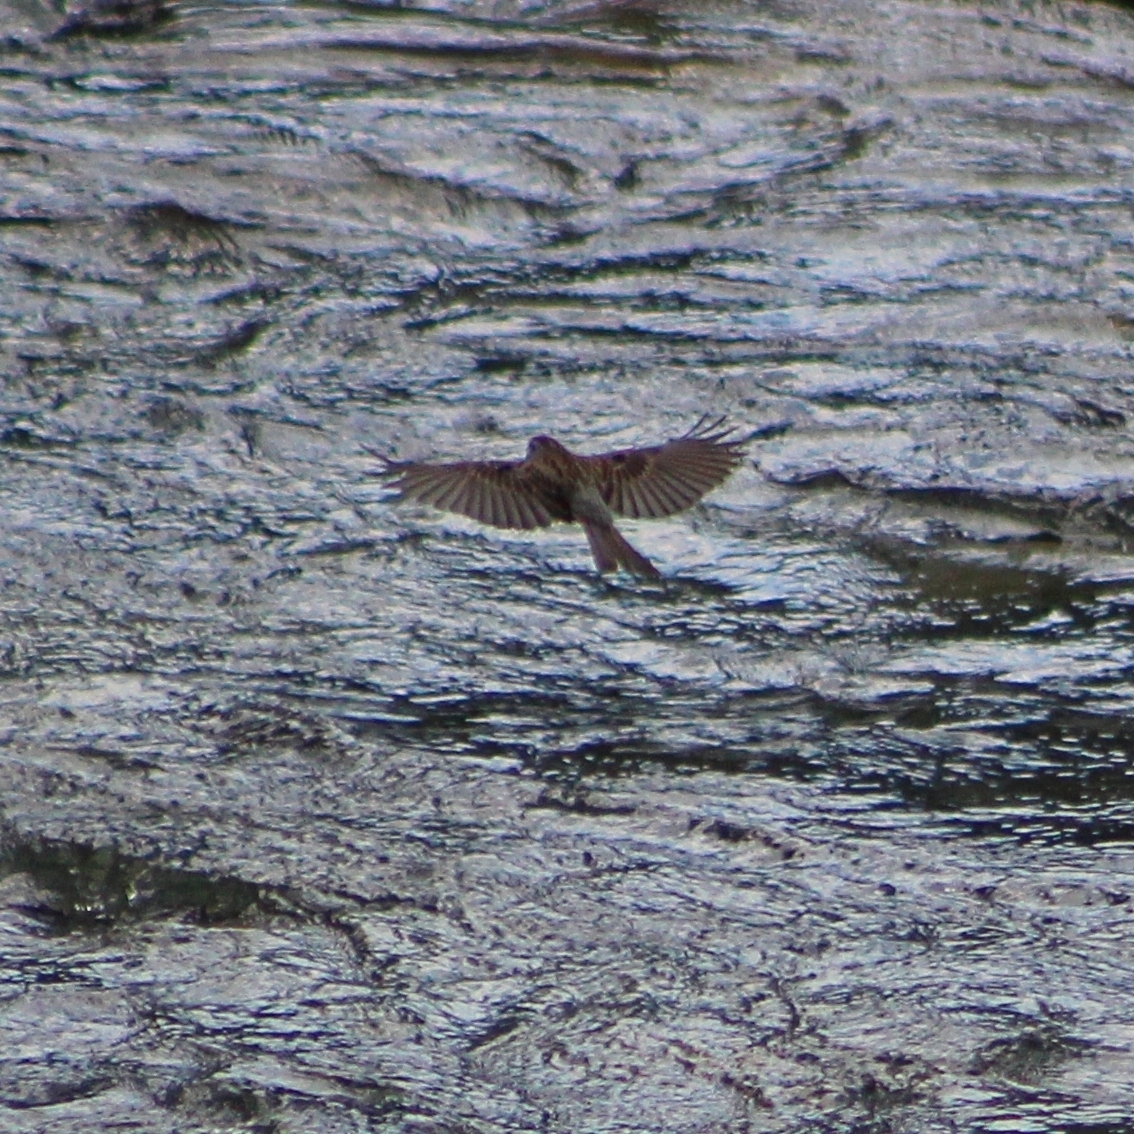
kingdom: Animalia
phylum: Chordata
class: Aves
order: Passeriformes
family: Passerellidae
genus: Spizella
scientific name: Spizella passerina
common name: Chipping sparrow
